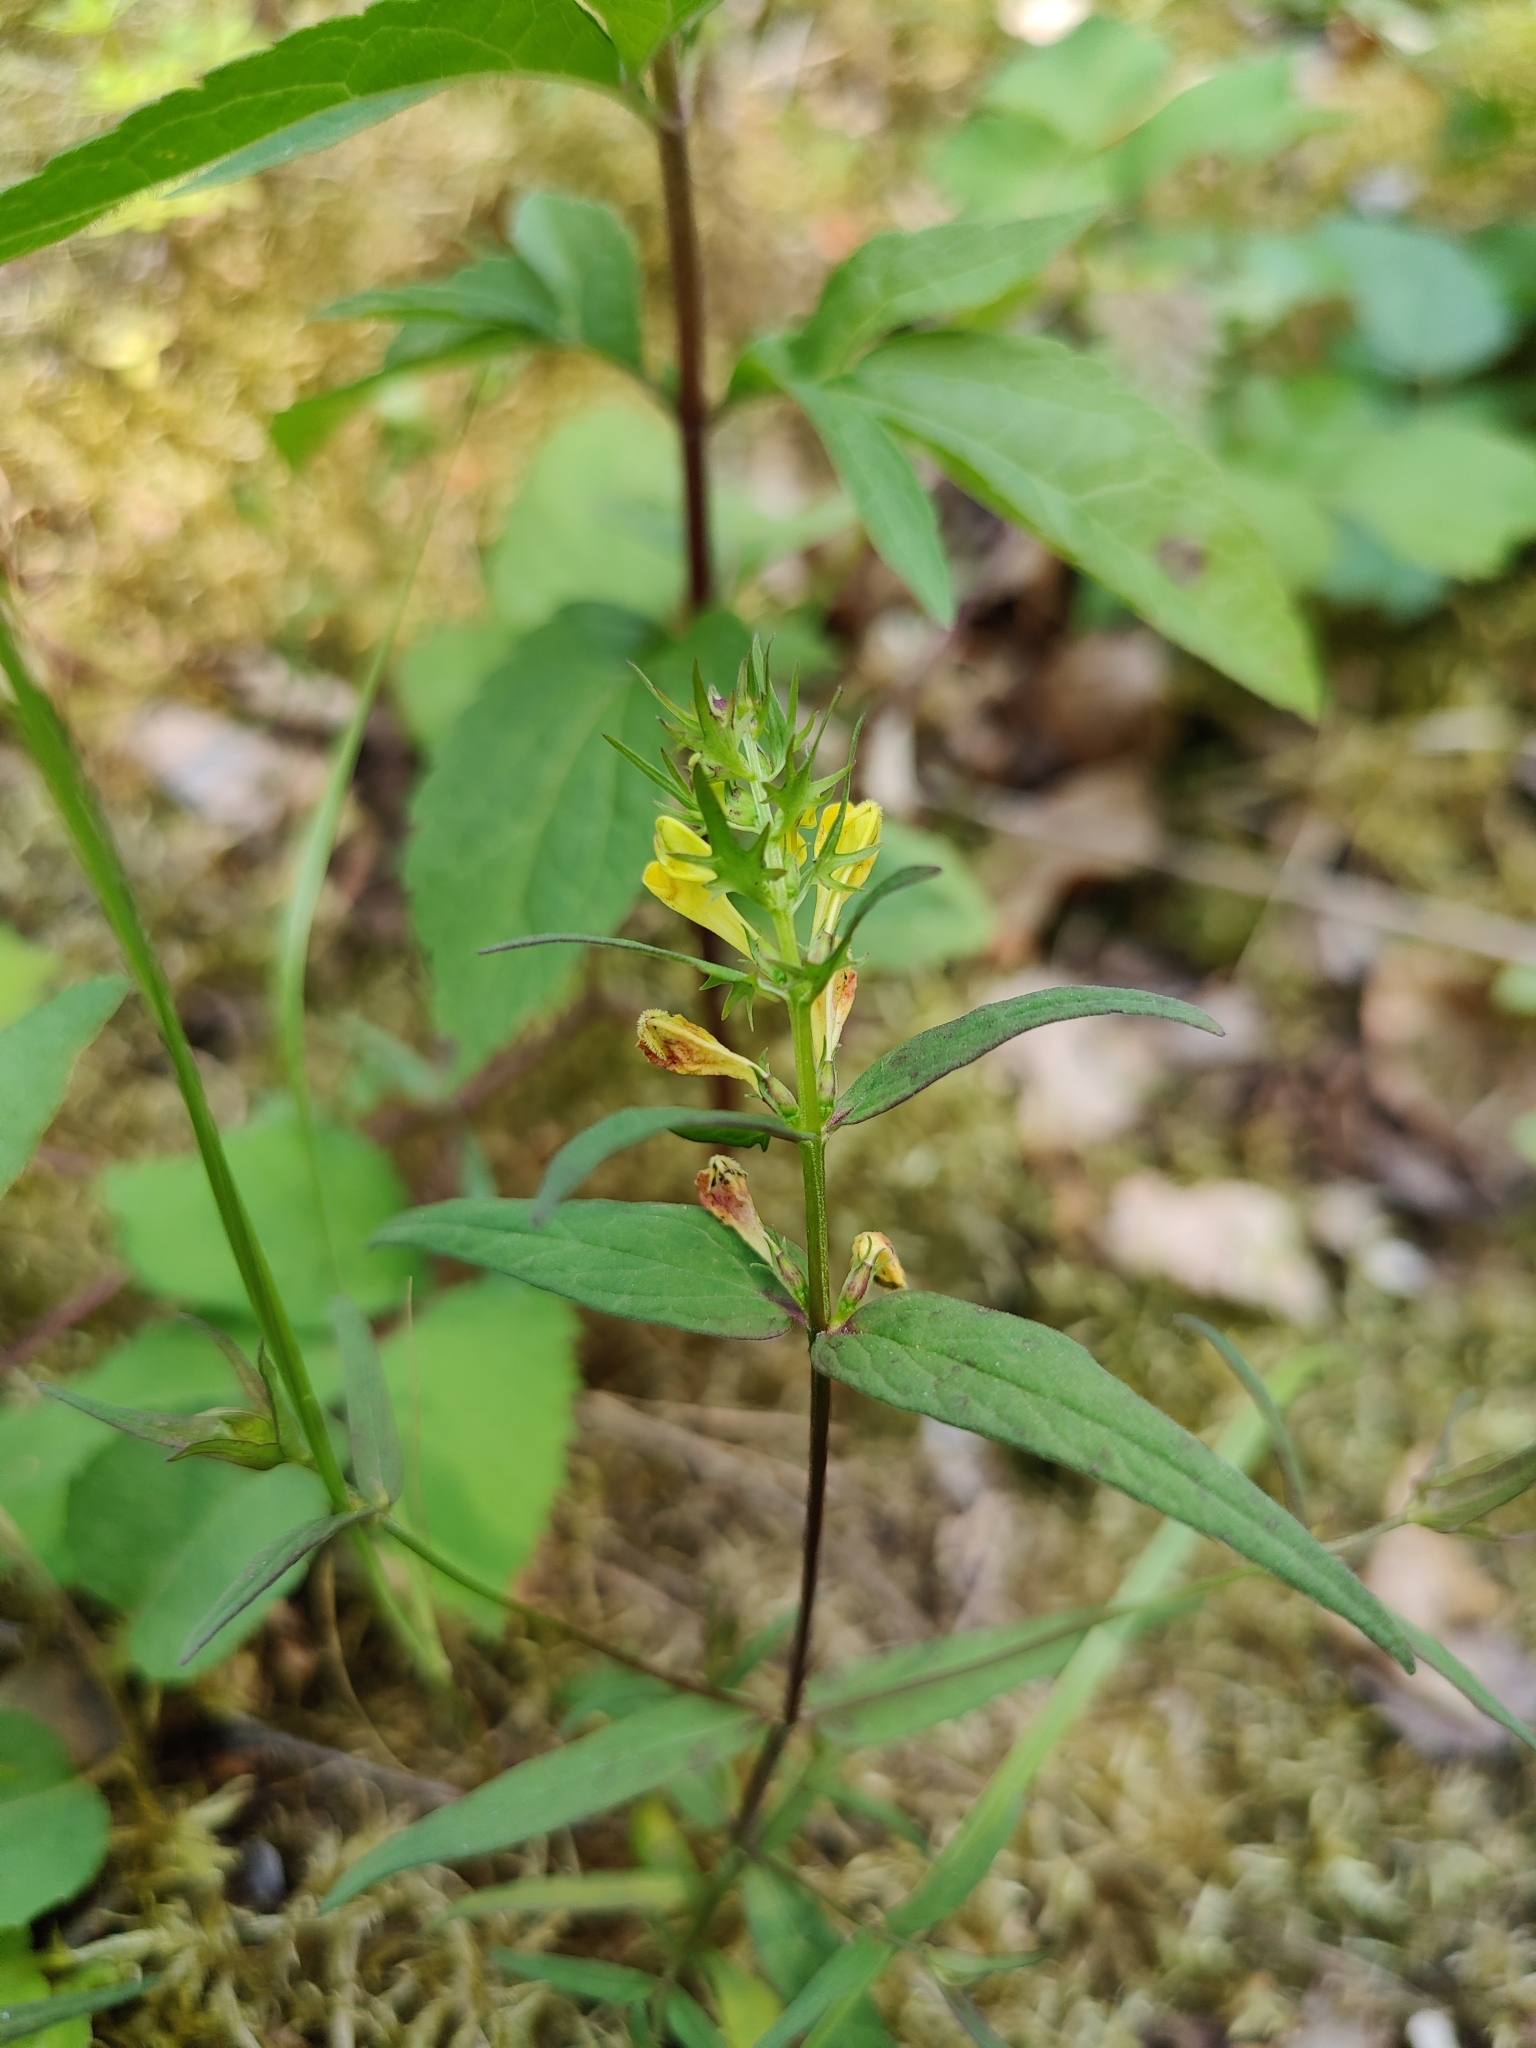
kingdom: Plantae
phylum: Tracheophyta
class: Magnoliopsida
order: Lamiales
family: Orobanchaceae
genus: Melampyrum
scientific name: Melampyrum pratense
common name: Common cow-wheat
